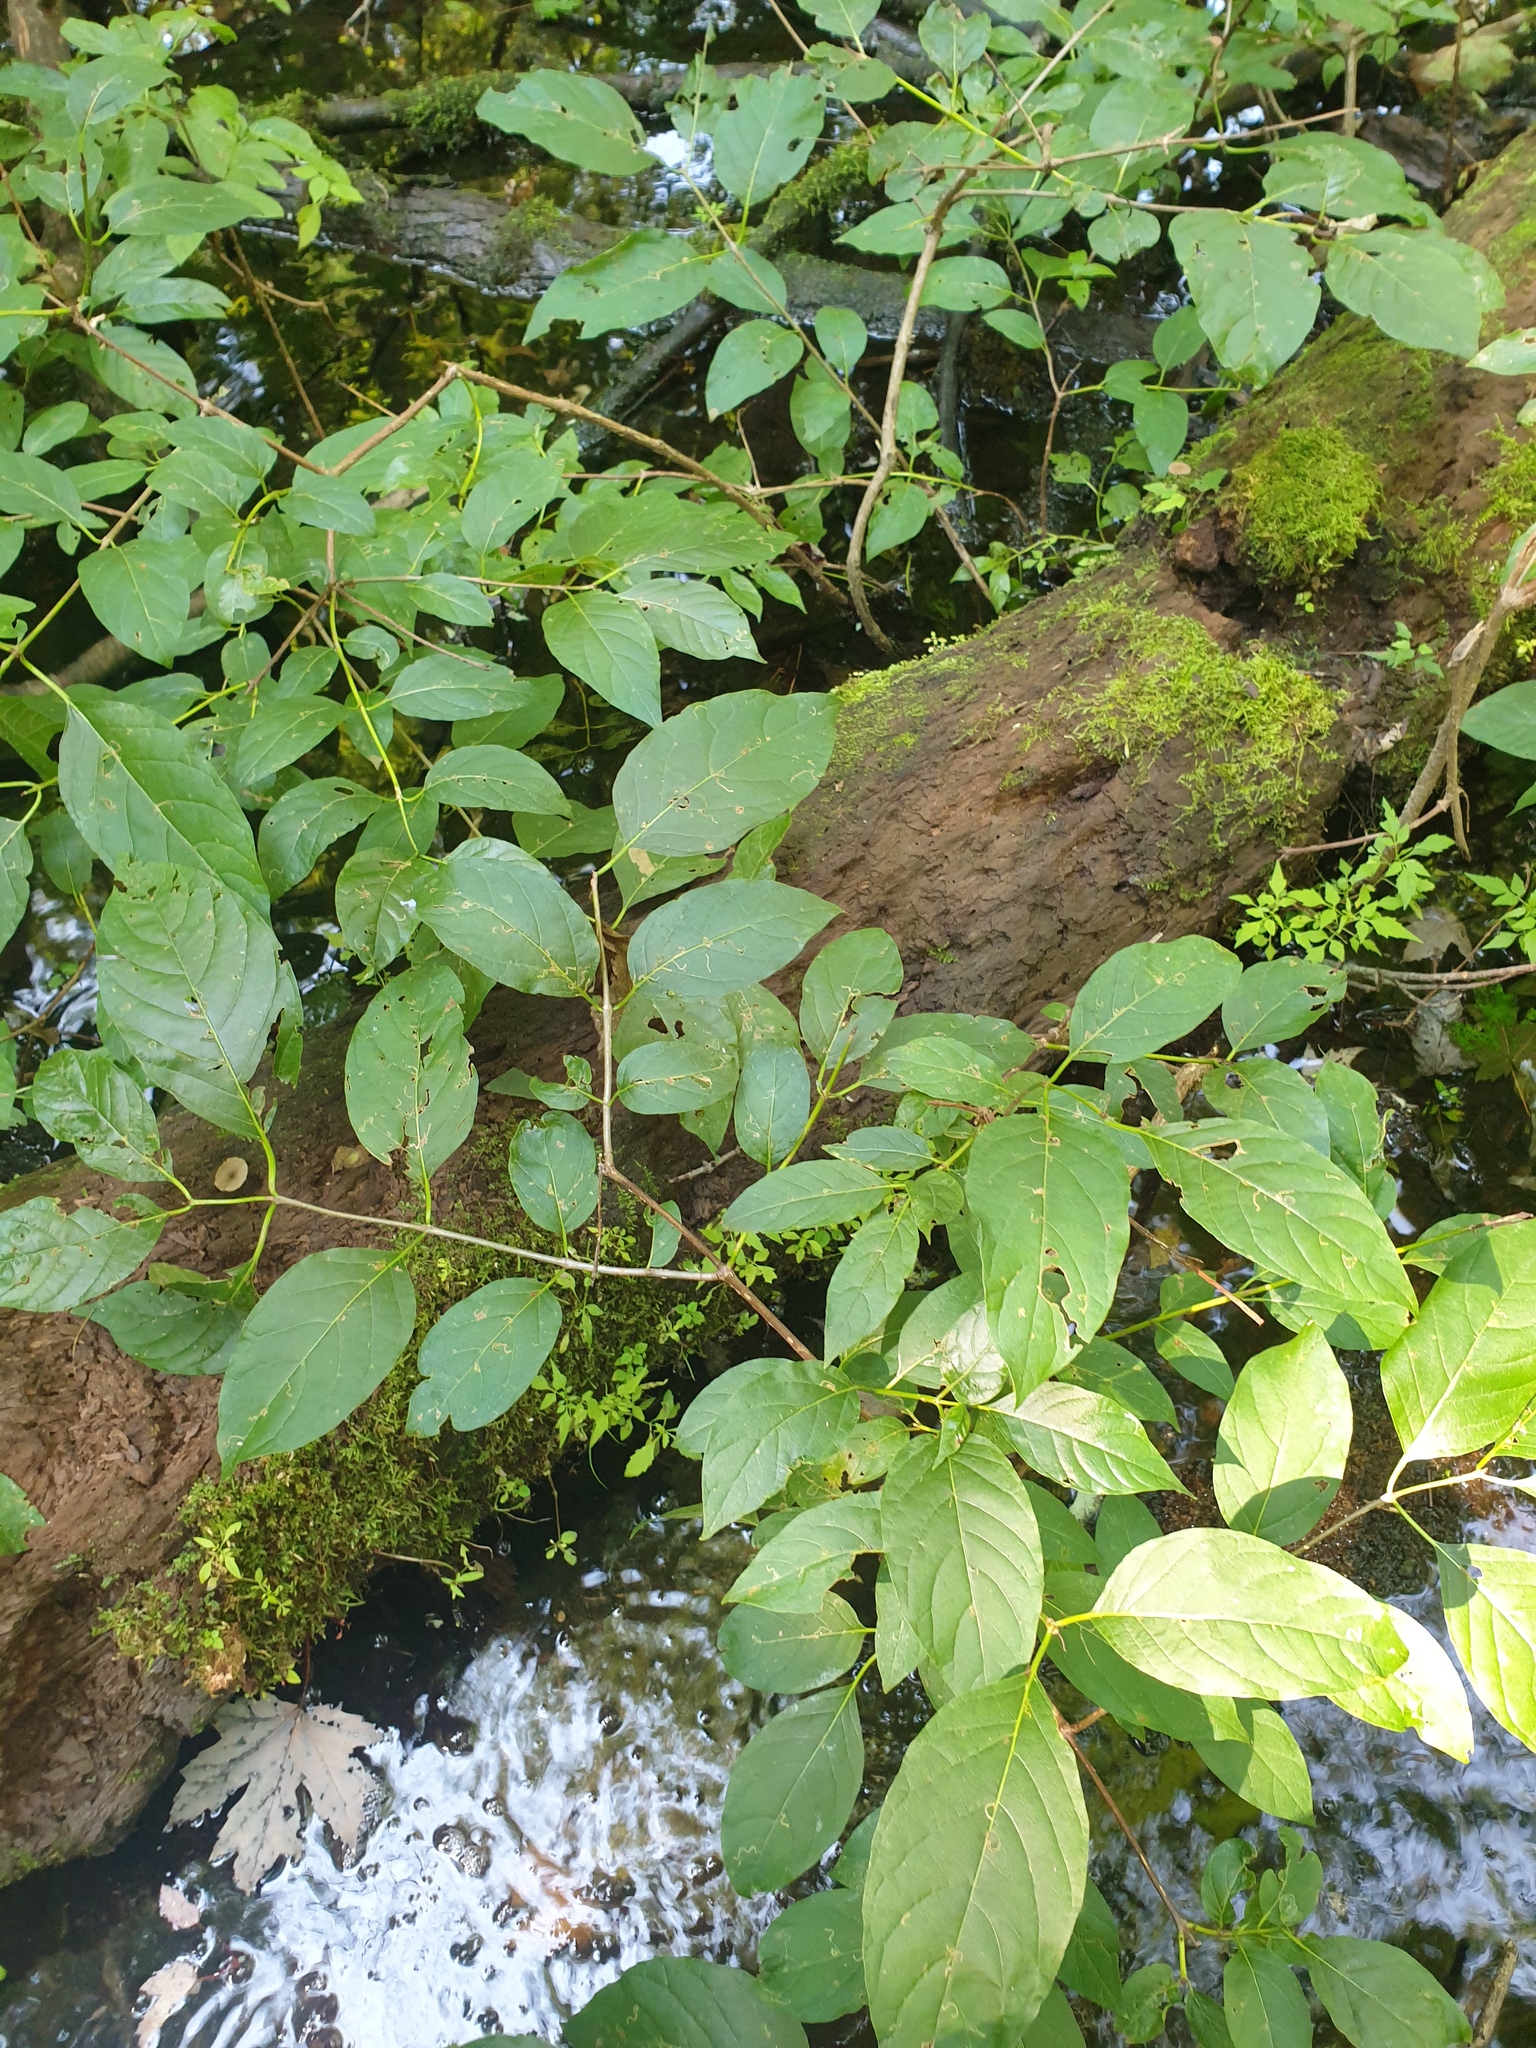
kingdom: Plantae
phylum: Tracheophyta
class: Magnoliopsida
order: Gentianales
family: Rubiaceae
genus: Cephalanthus
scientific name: Cephalanthus occidentalis
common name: Button-willow
